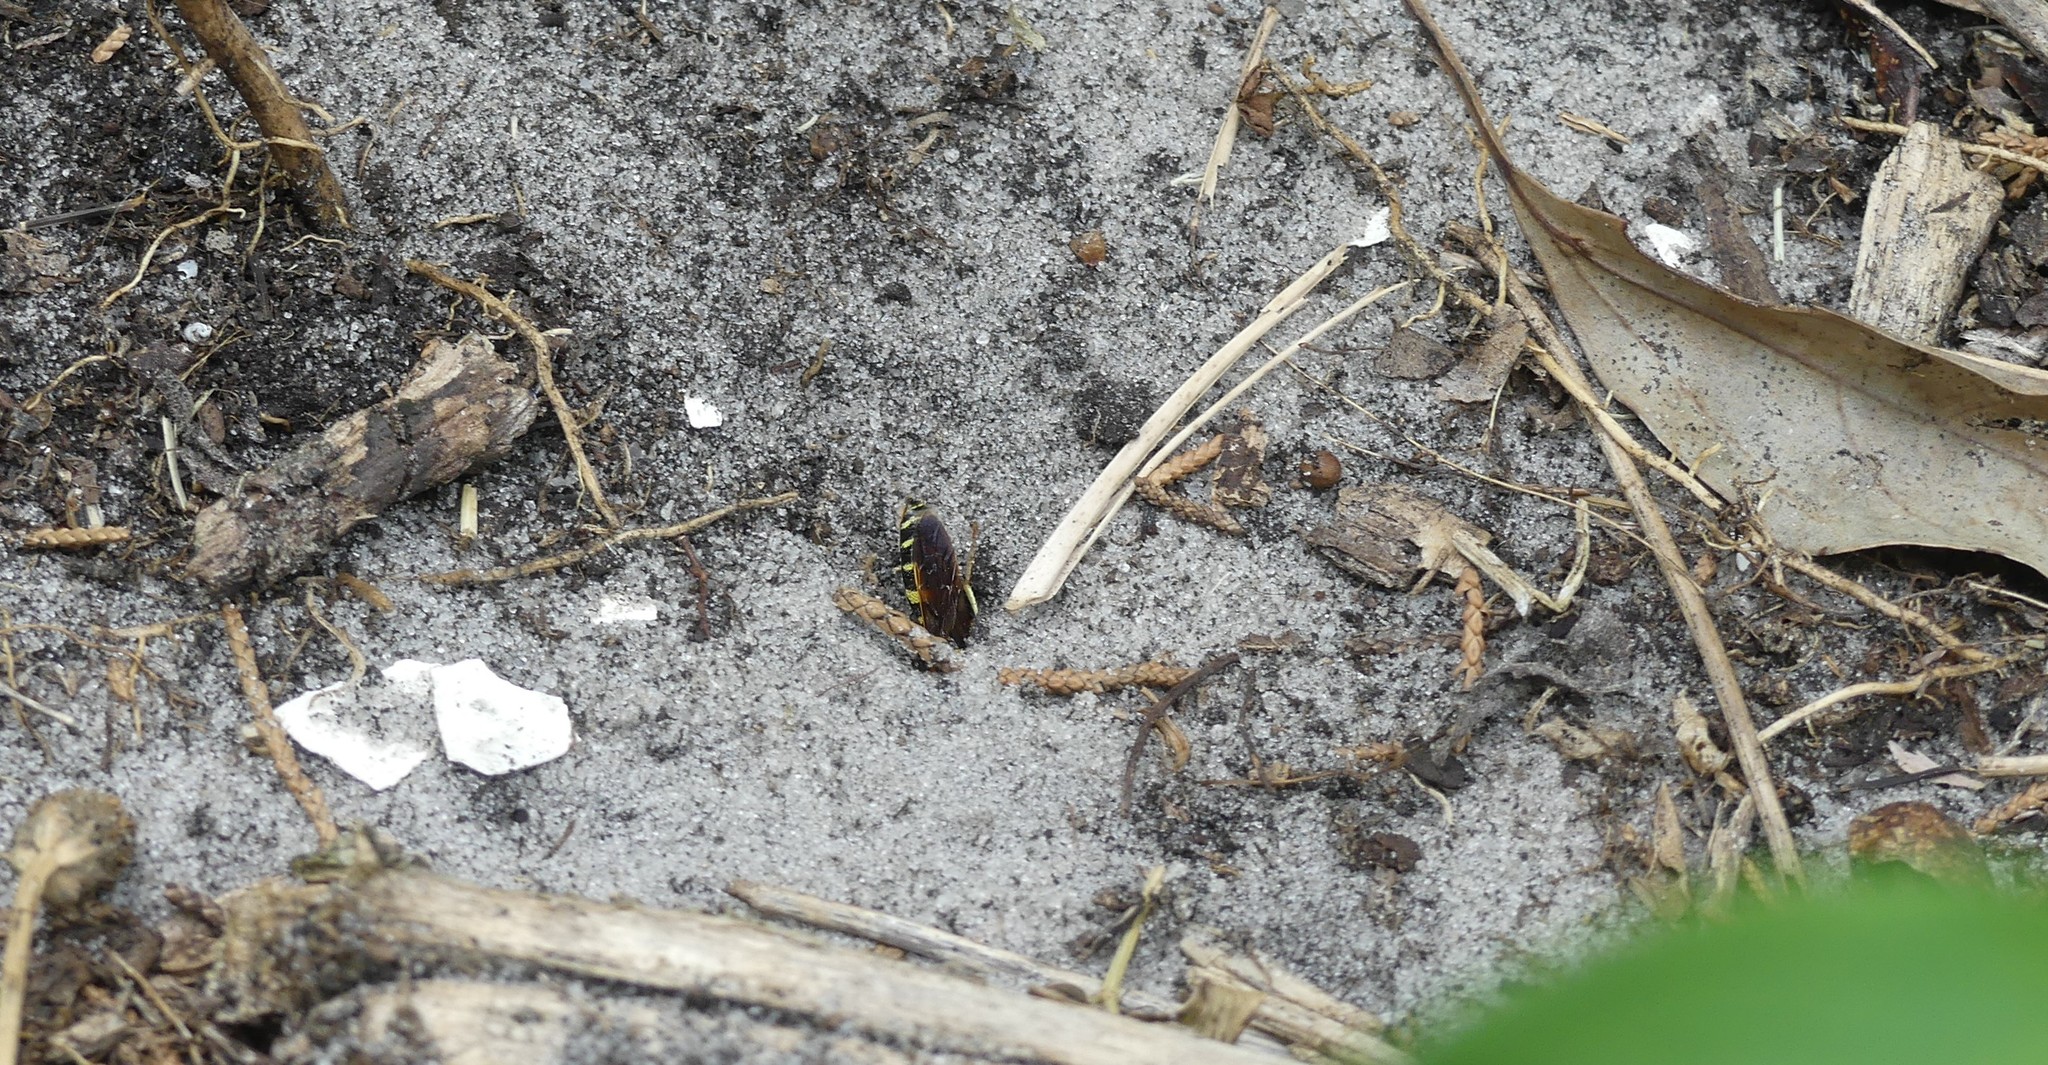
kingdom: Animalia
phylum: Arthropoda
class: Insecta
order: Hymenoptera
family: Crabronidae
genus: Philanthus
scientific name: Philanthus ventilabris
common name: Bee-killer wasp
